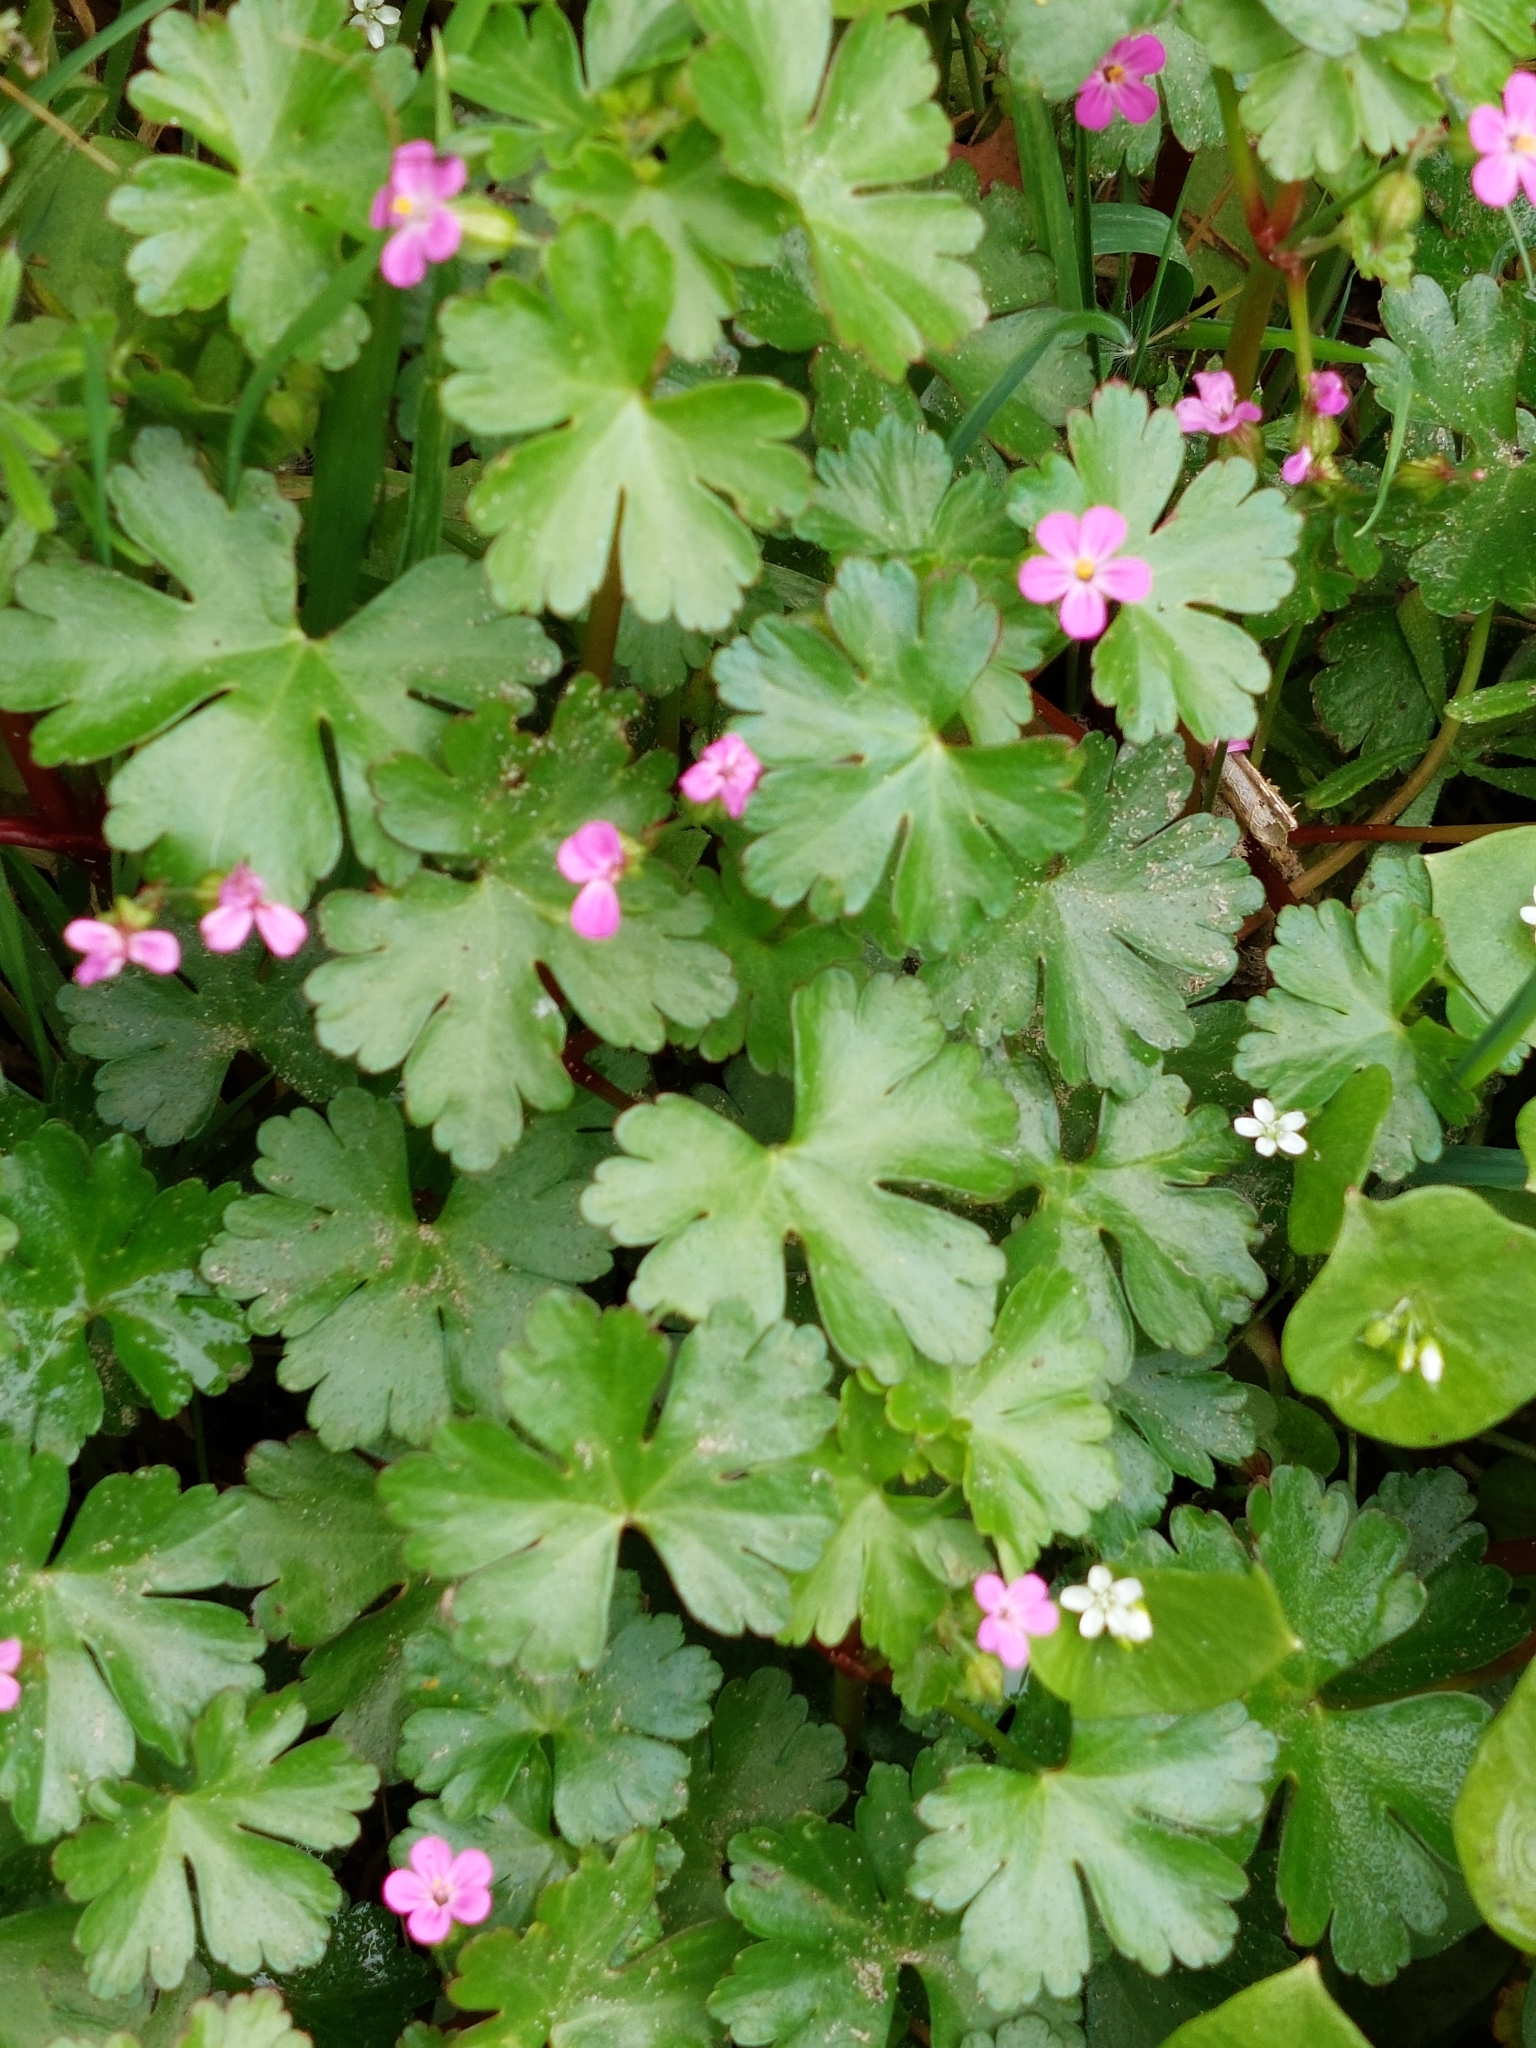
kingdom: Plantae
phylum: Tracheophyta
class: Magnoliopsida
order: Geraniales
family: Geraniaceae
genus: Geranium
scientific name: Geranium lucidum
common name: Shining crane's-bill
